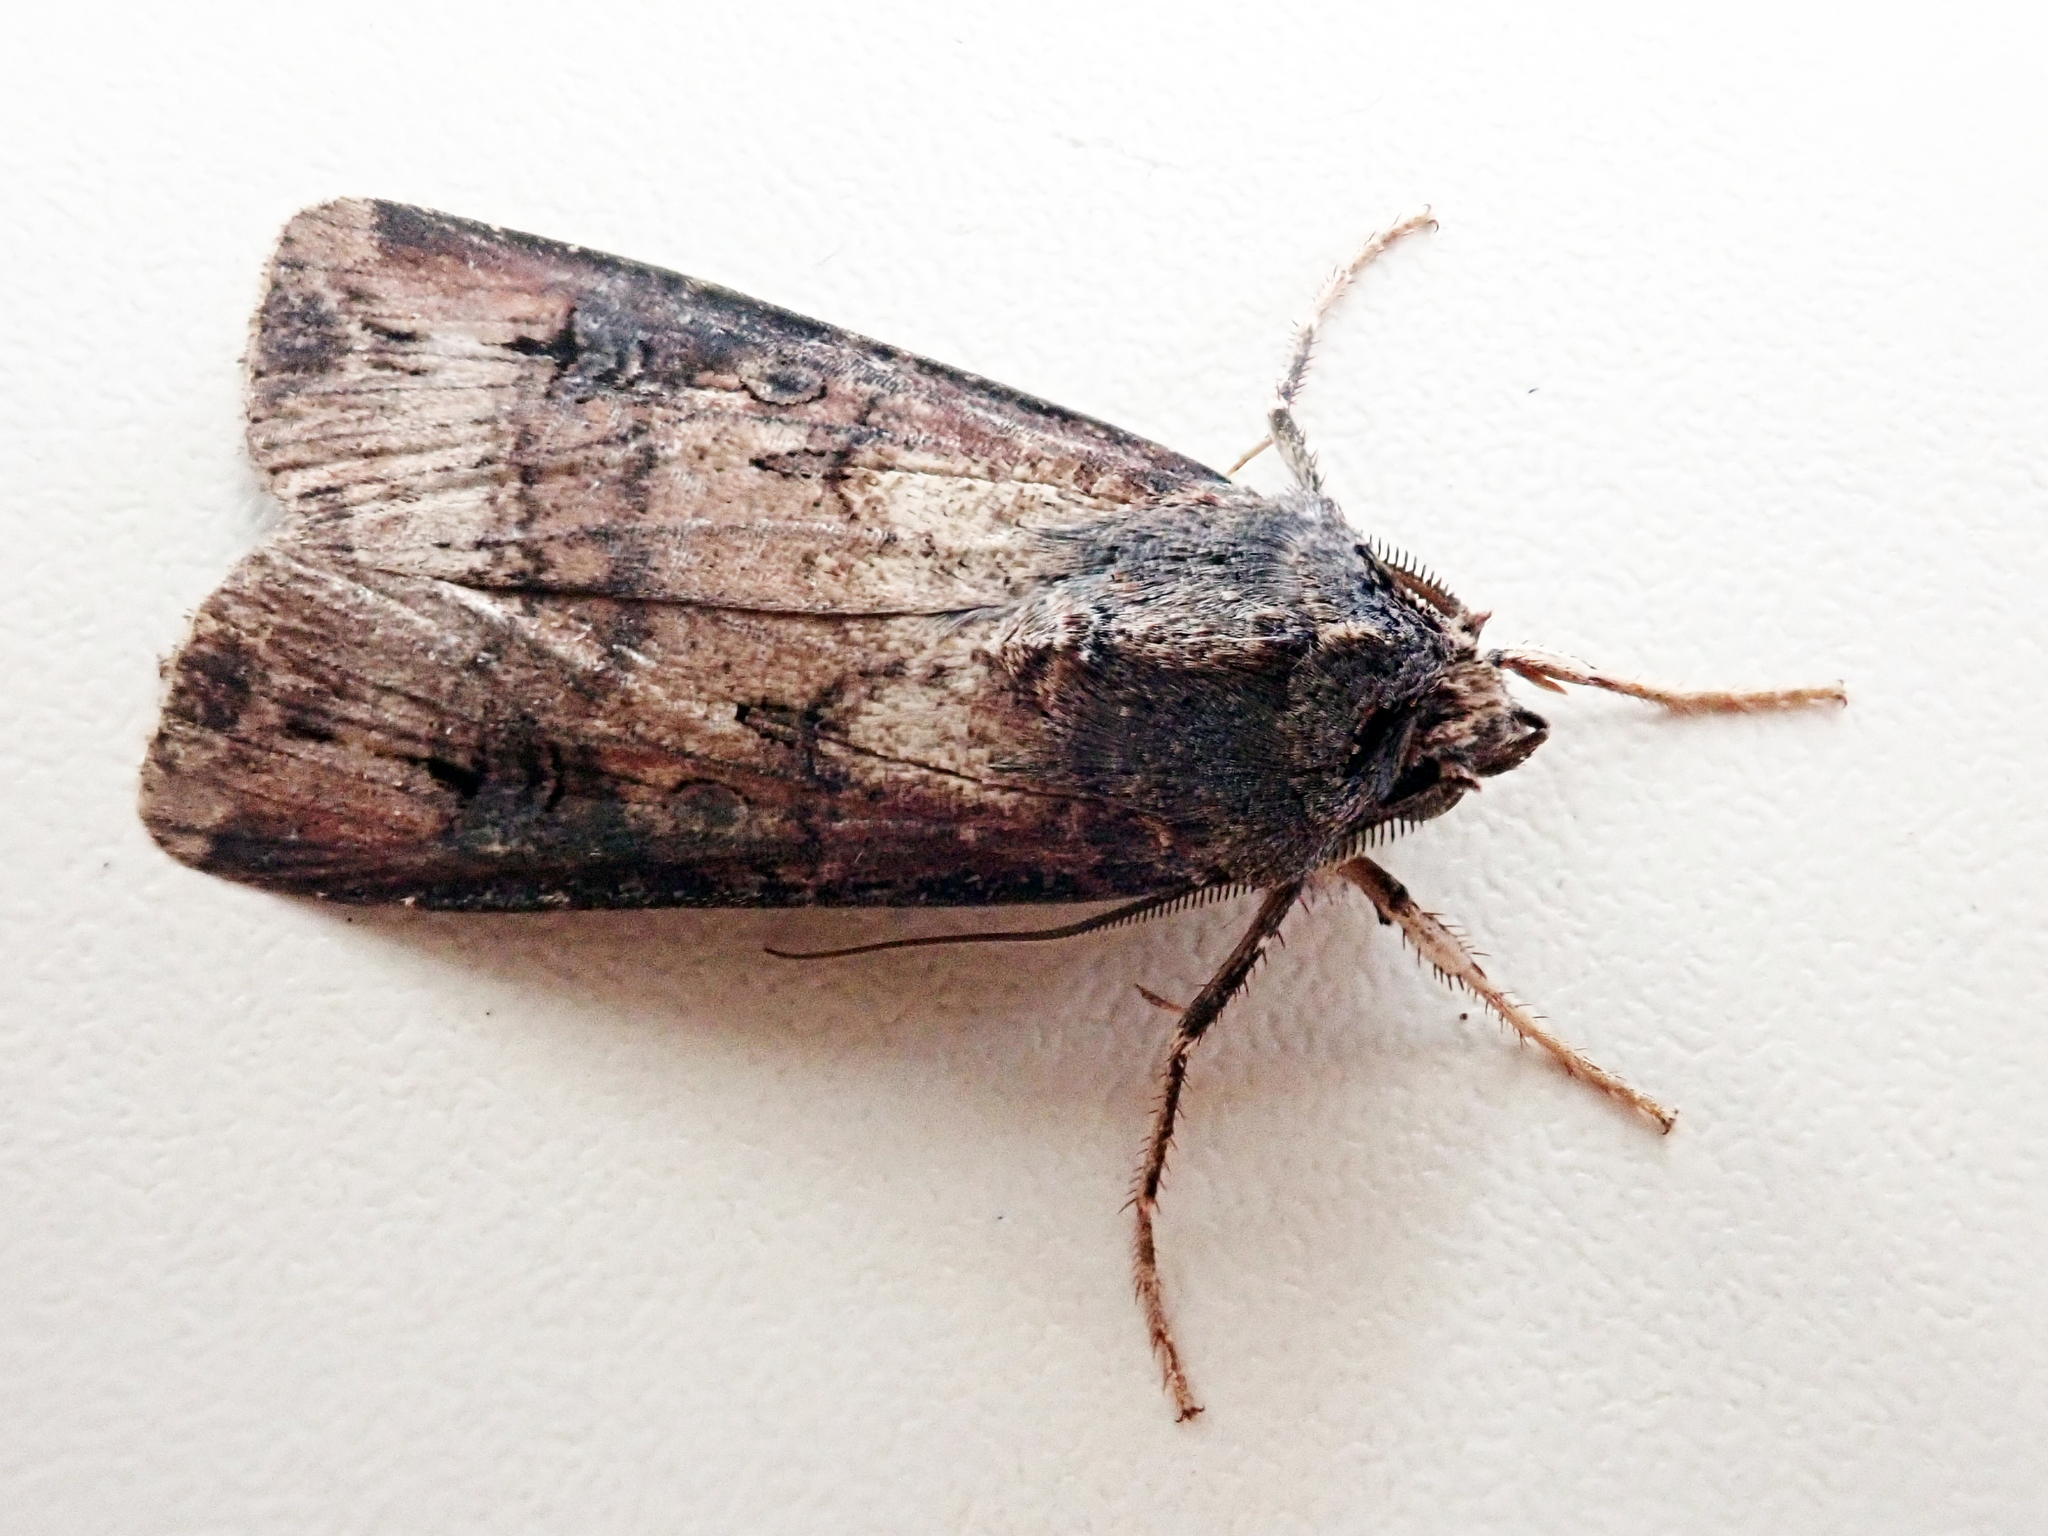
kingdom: Animalia
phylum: Arthropoda
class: Insecta
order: Lepidoptera
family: Noctuidae
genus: Agrotis
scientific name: Agrotis ipsilon
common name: Dark sword-grass
